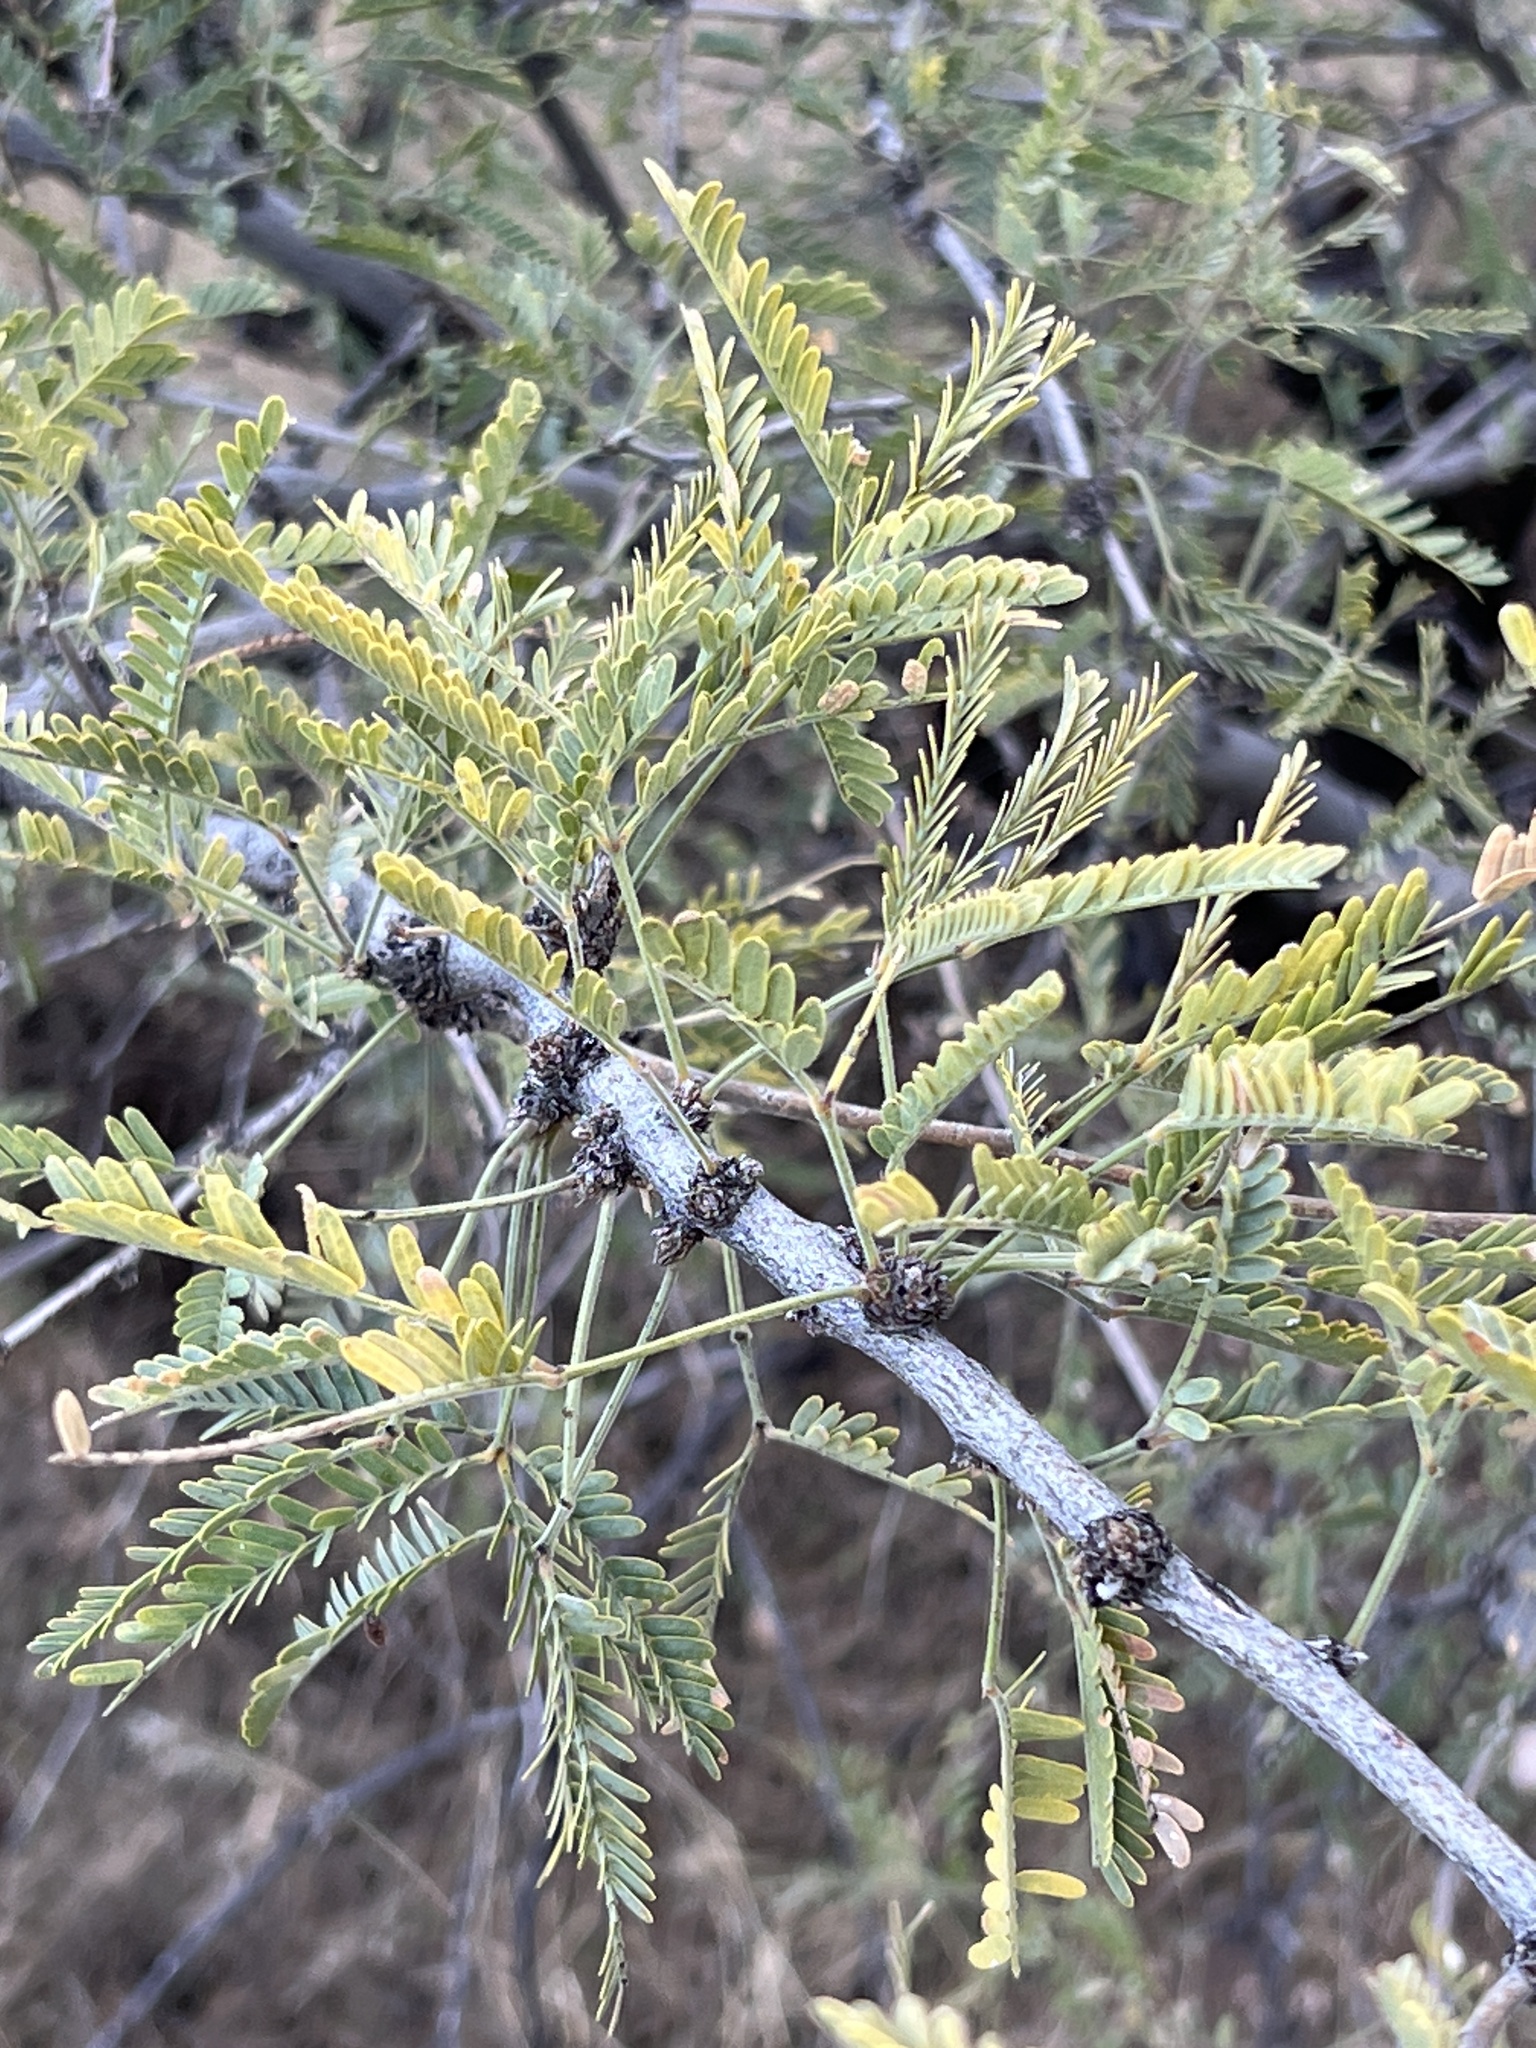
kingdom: Plantae
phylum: Tracheophyta
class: Magnoliopsida
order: Fabales
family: Fabaceae
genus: Prosopis
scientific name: Prosopis velutina
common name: Velvet mesquite
